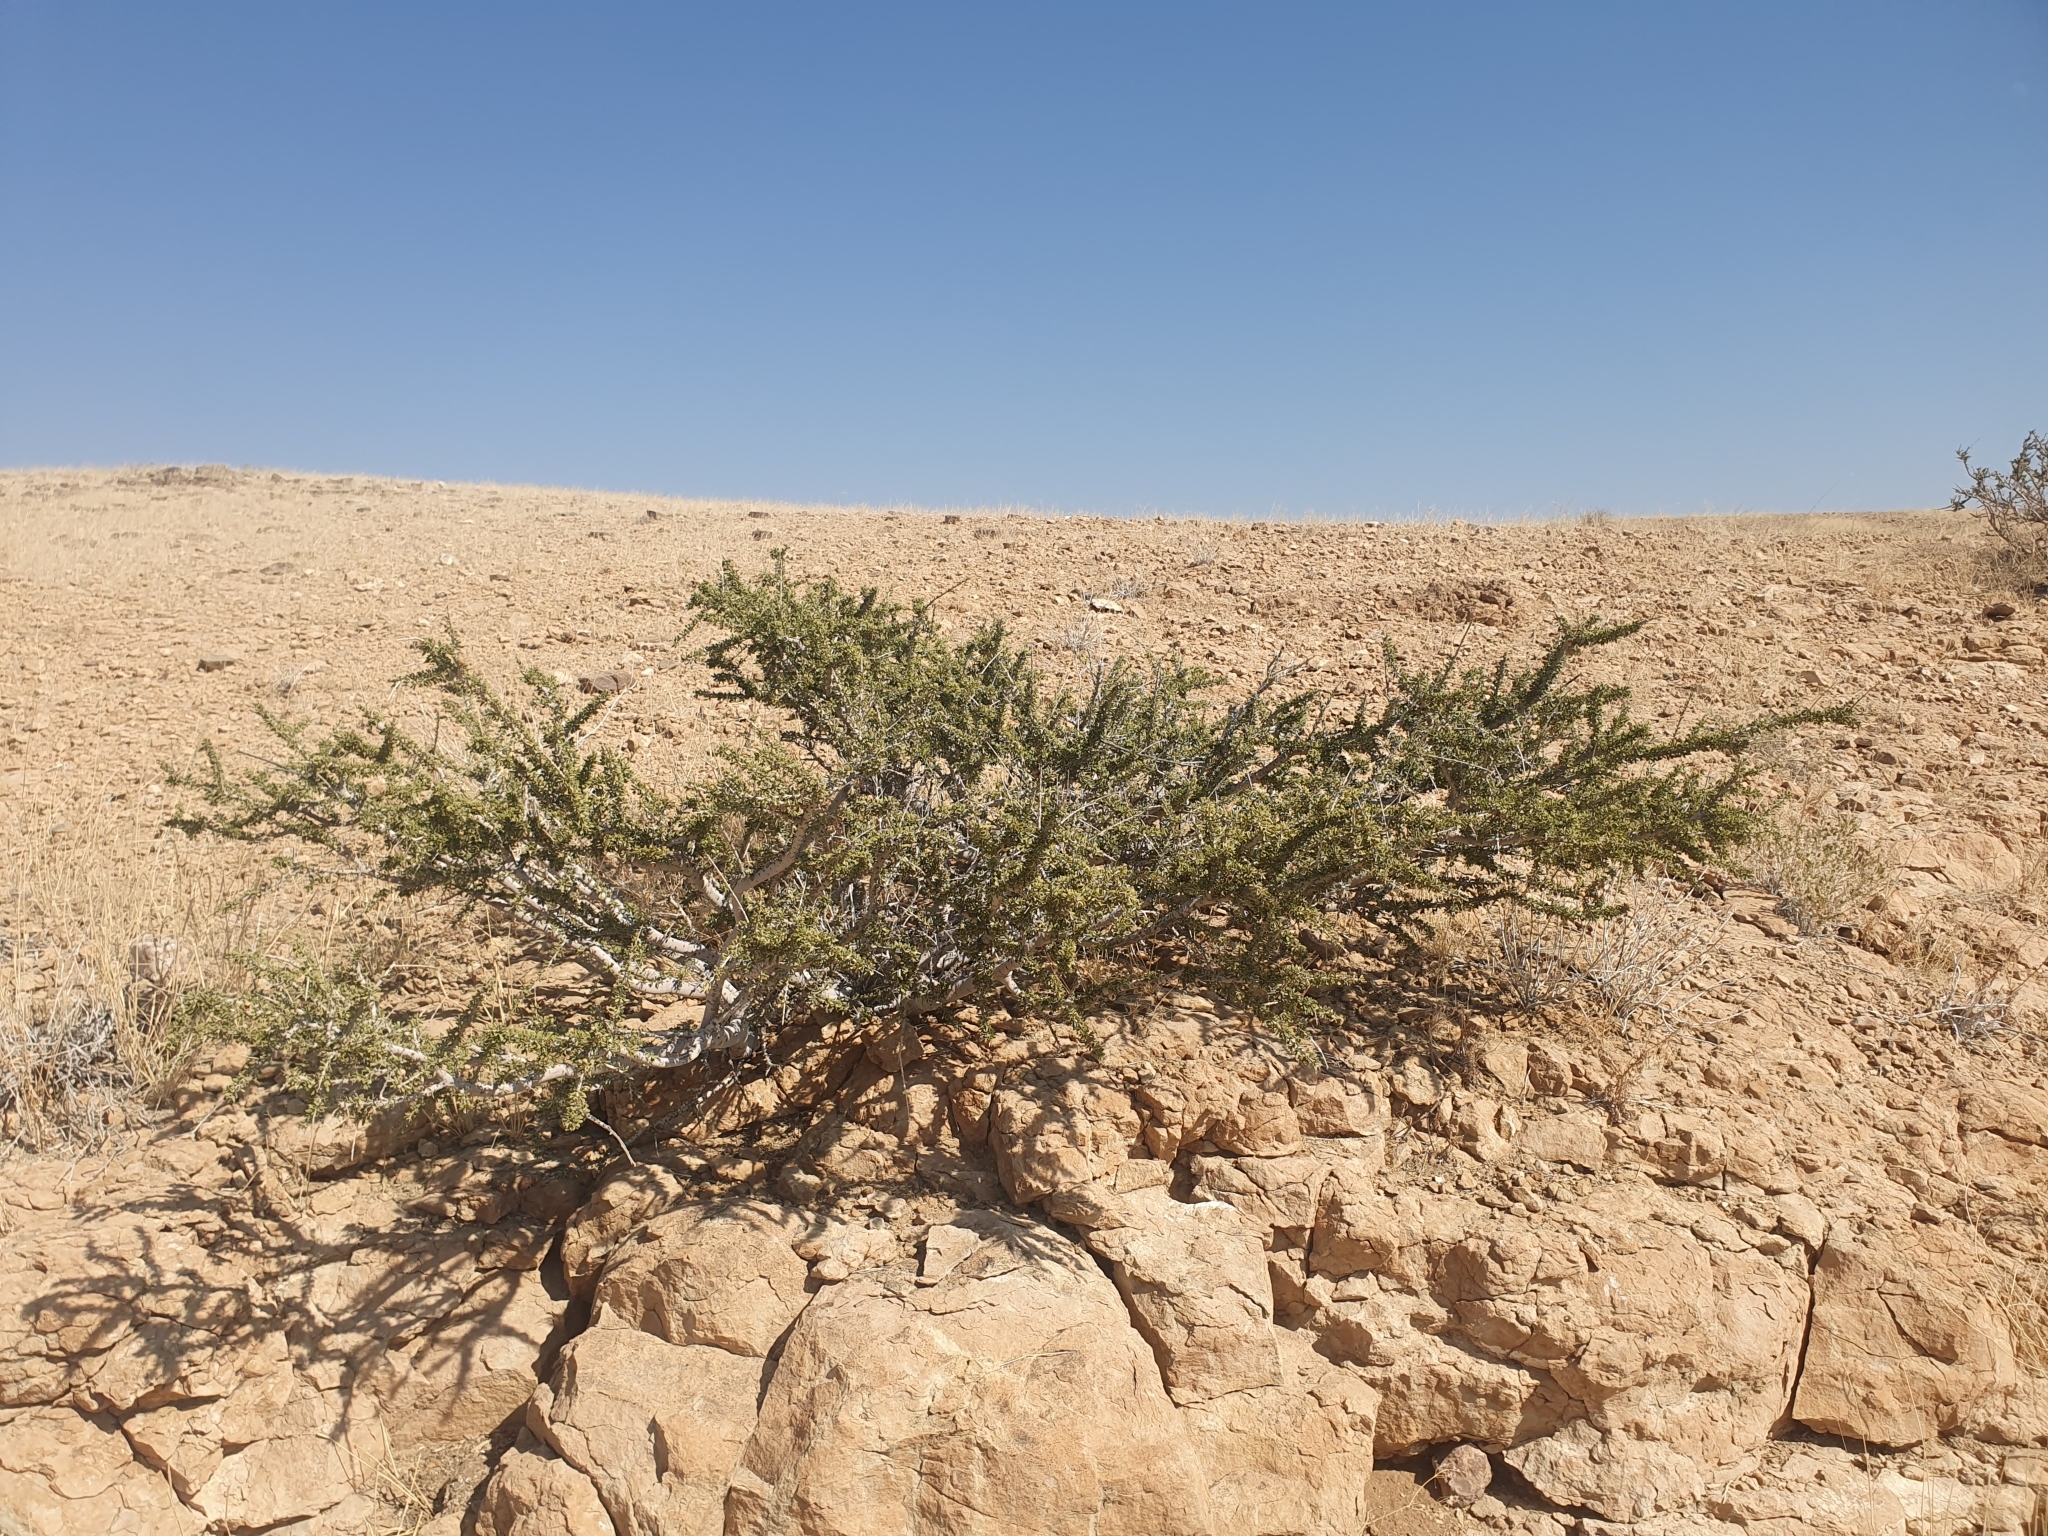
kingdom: Plantae
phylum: Tracheophyta
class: Magnoliopsida
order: Brassicales
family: Capparaceae
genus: Boscia
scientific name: Boscia foetida
